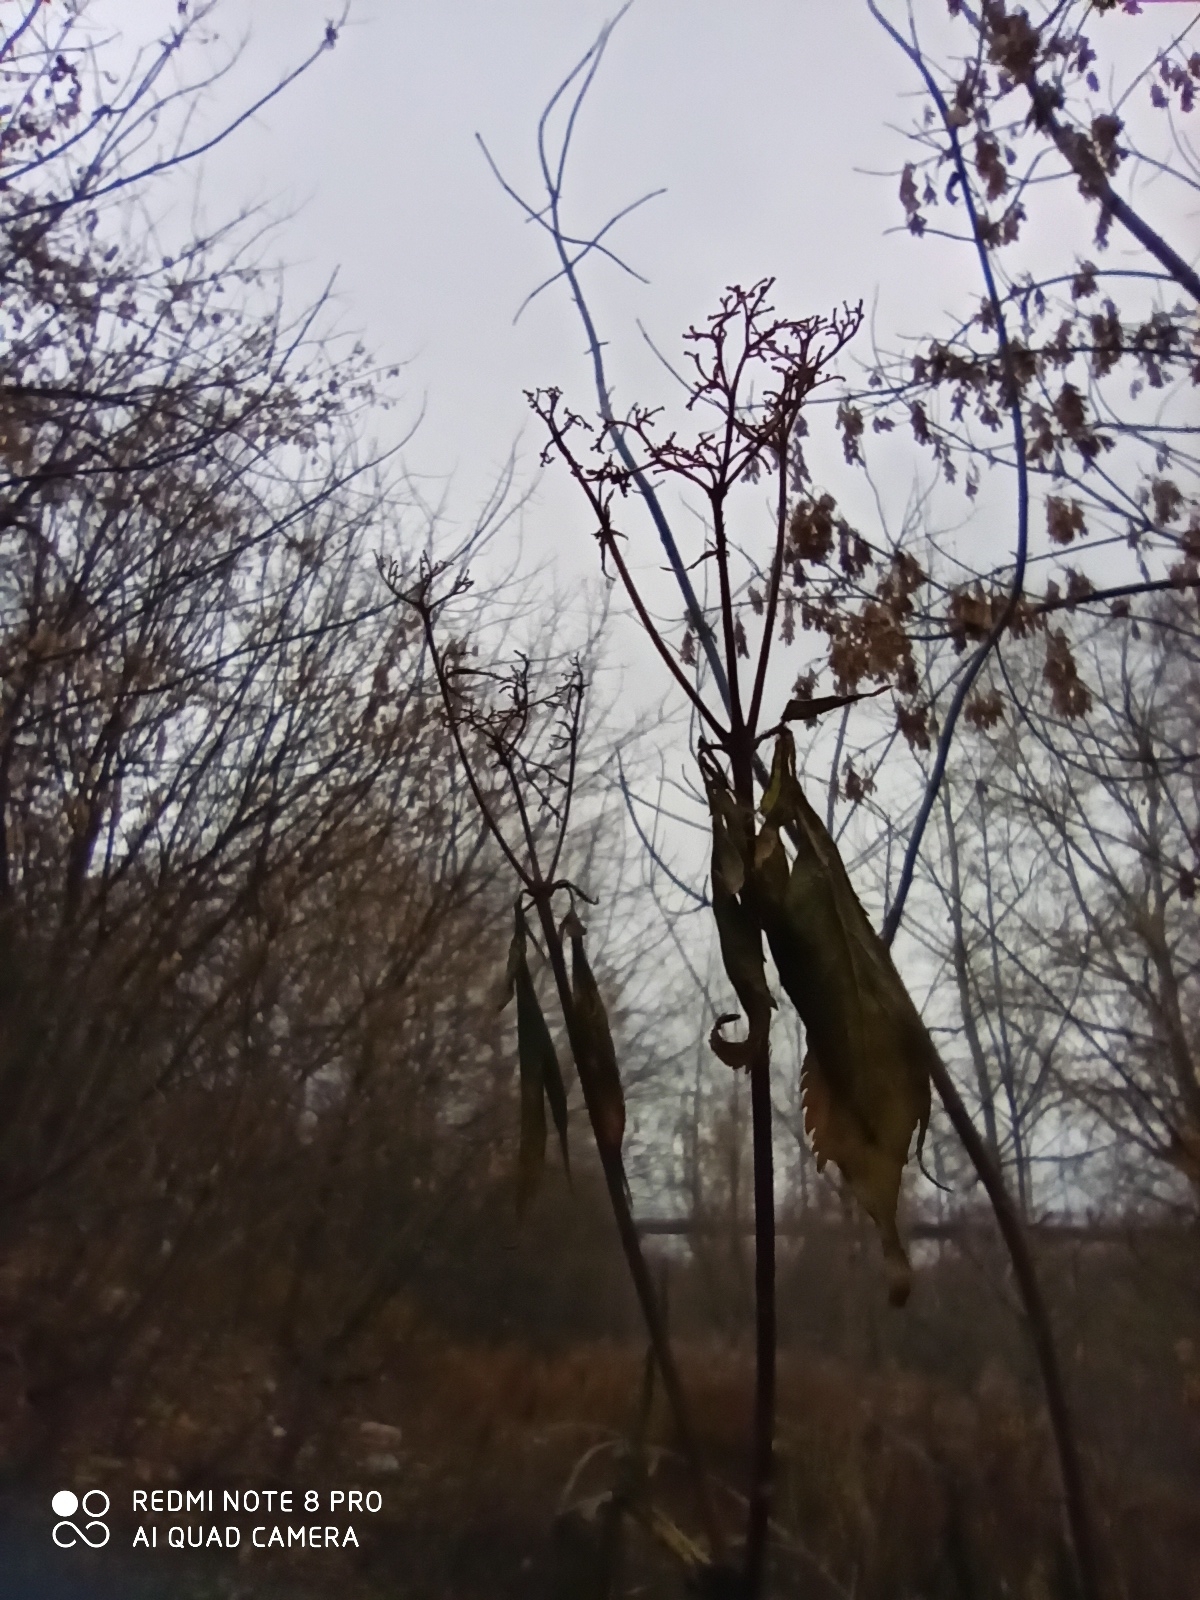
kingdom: Plantae
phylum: Tracheophyta
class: Magnoliopsida
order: Asterales
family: Asteraceae
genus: Eupatorium
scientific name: Eupatorium cannabinum
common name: Hemp-agrimony
